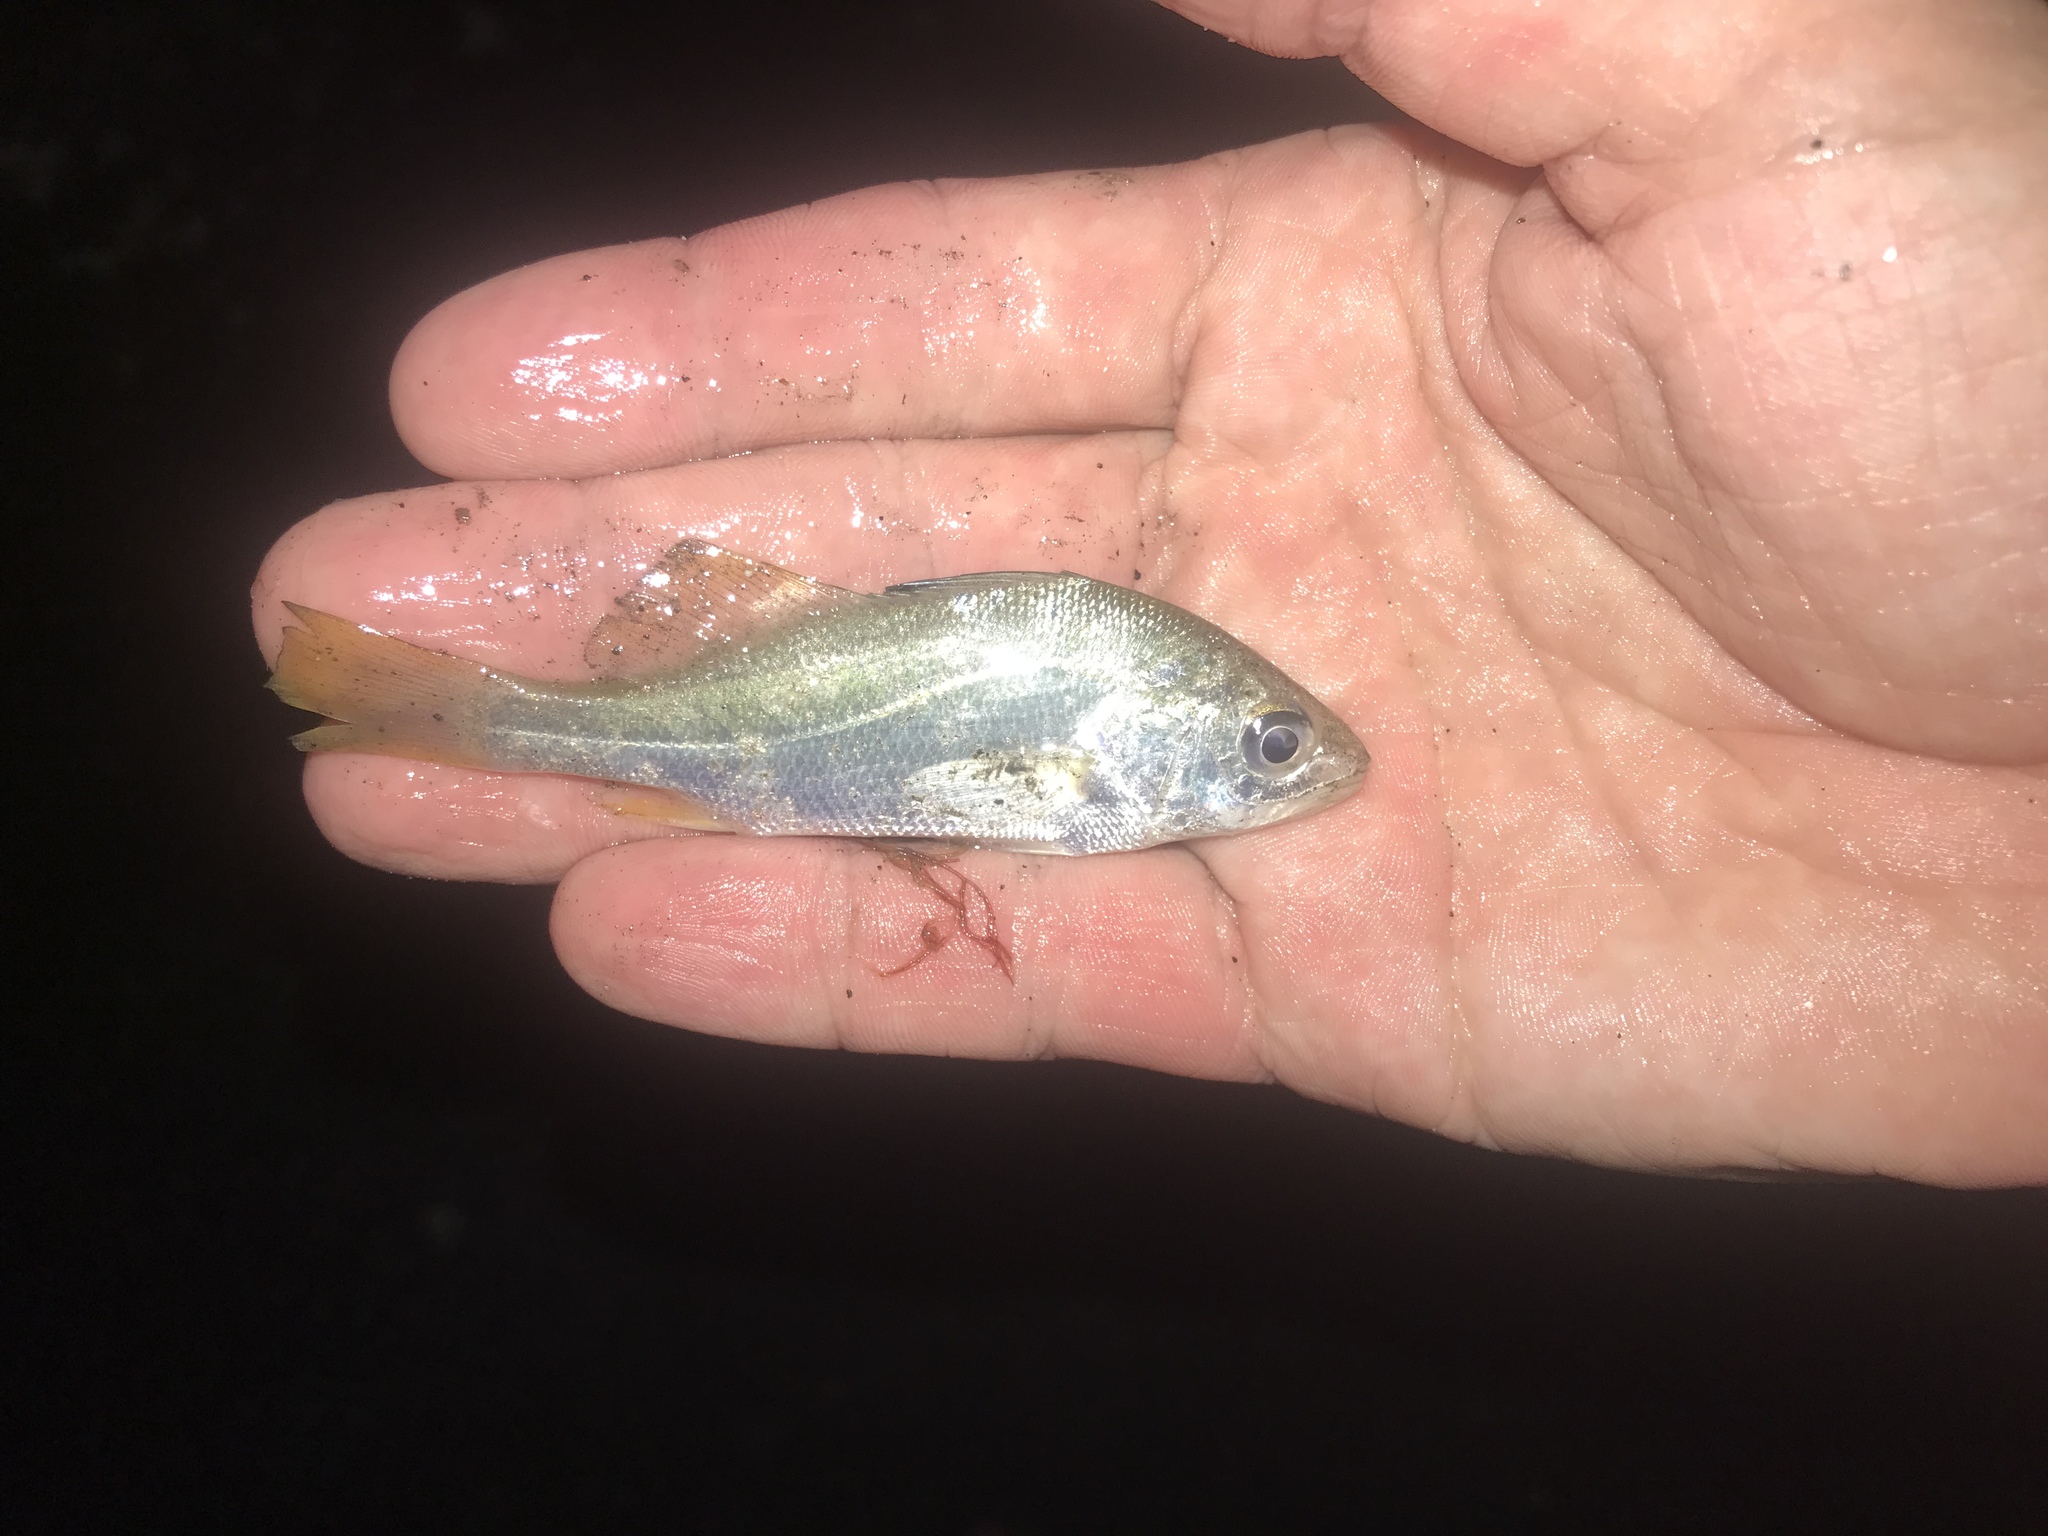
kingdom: Animalia
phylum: Chordata
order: Perciformes
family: Sciaenidae
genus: Bairdiella
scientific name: Bairdiella chrysoura
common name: Silver perch
